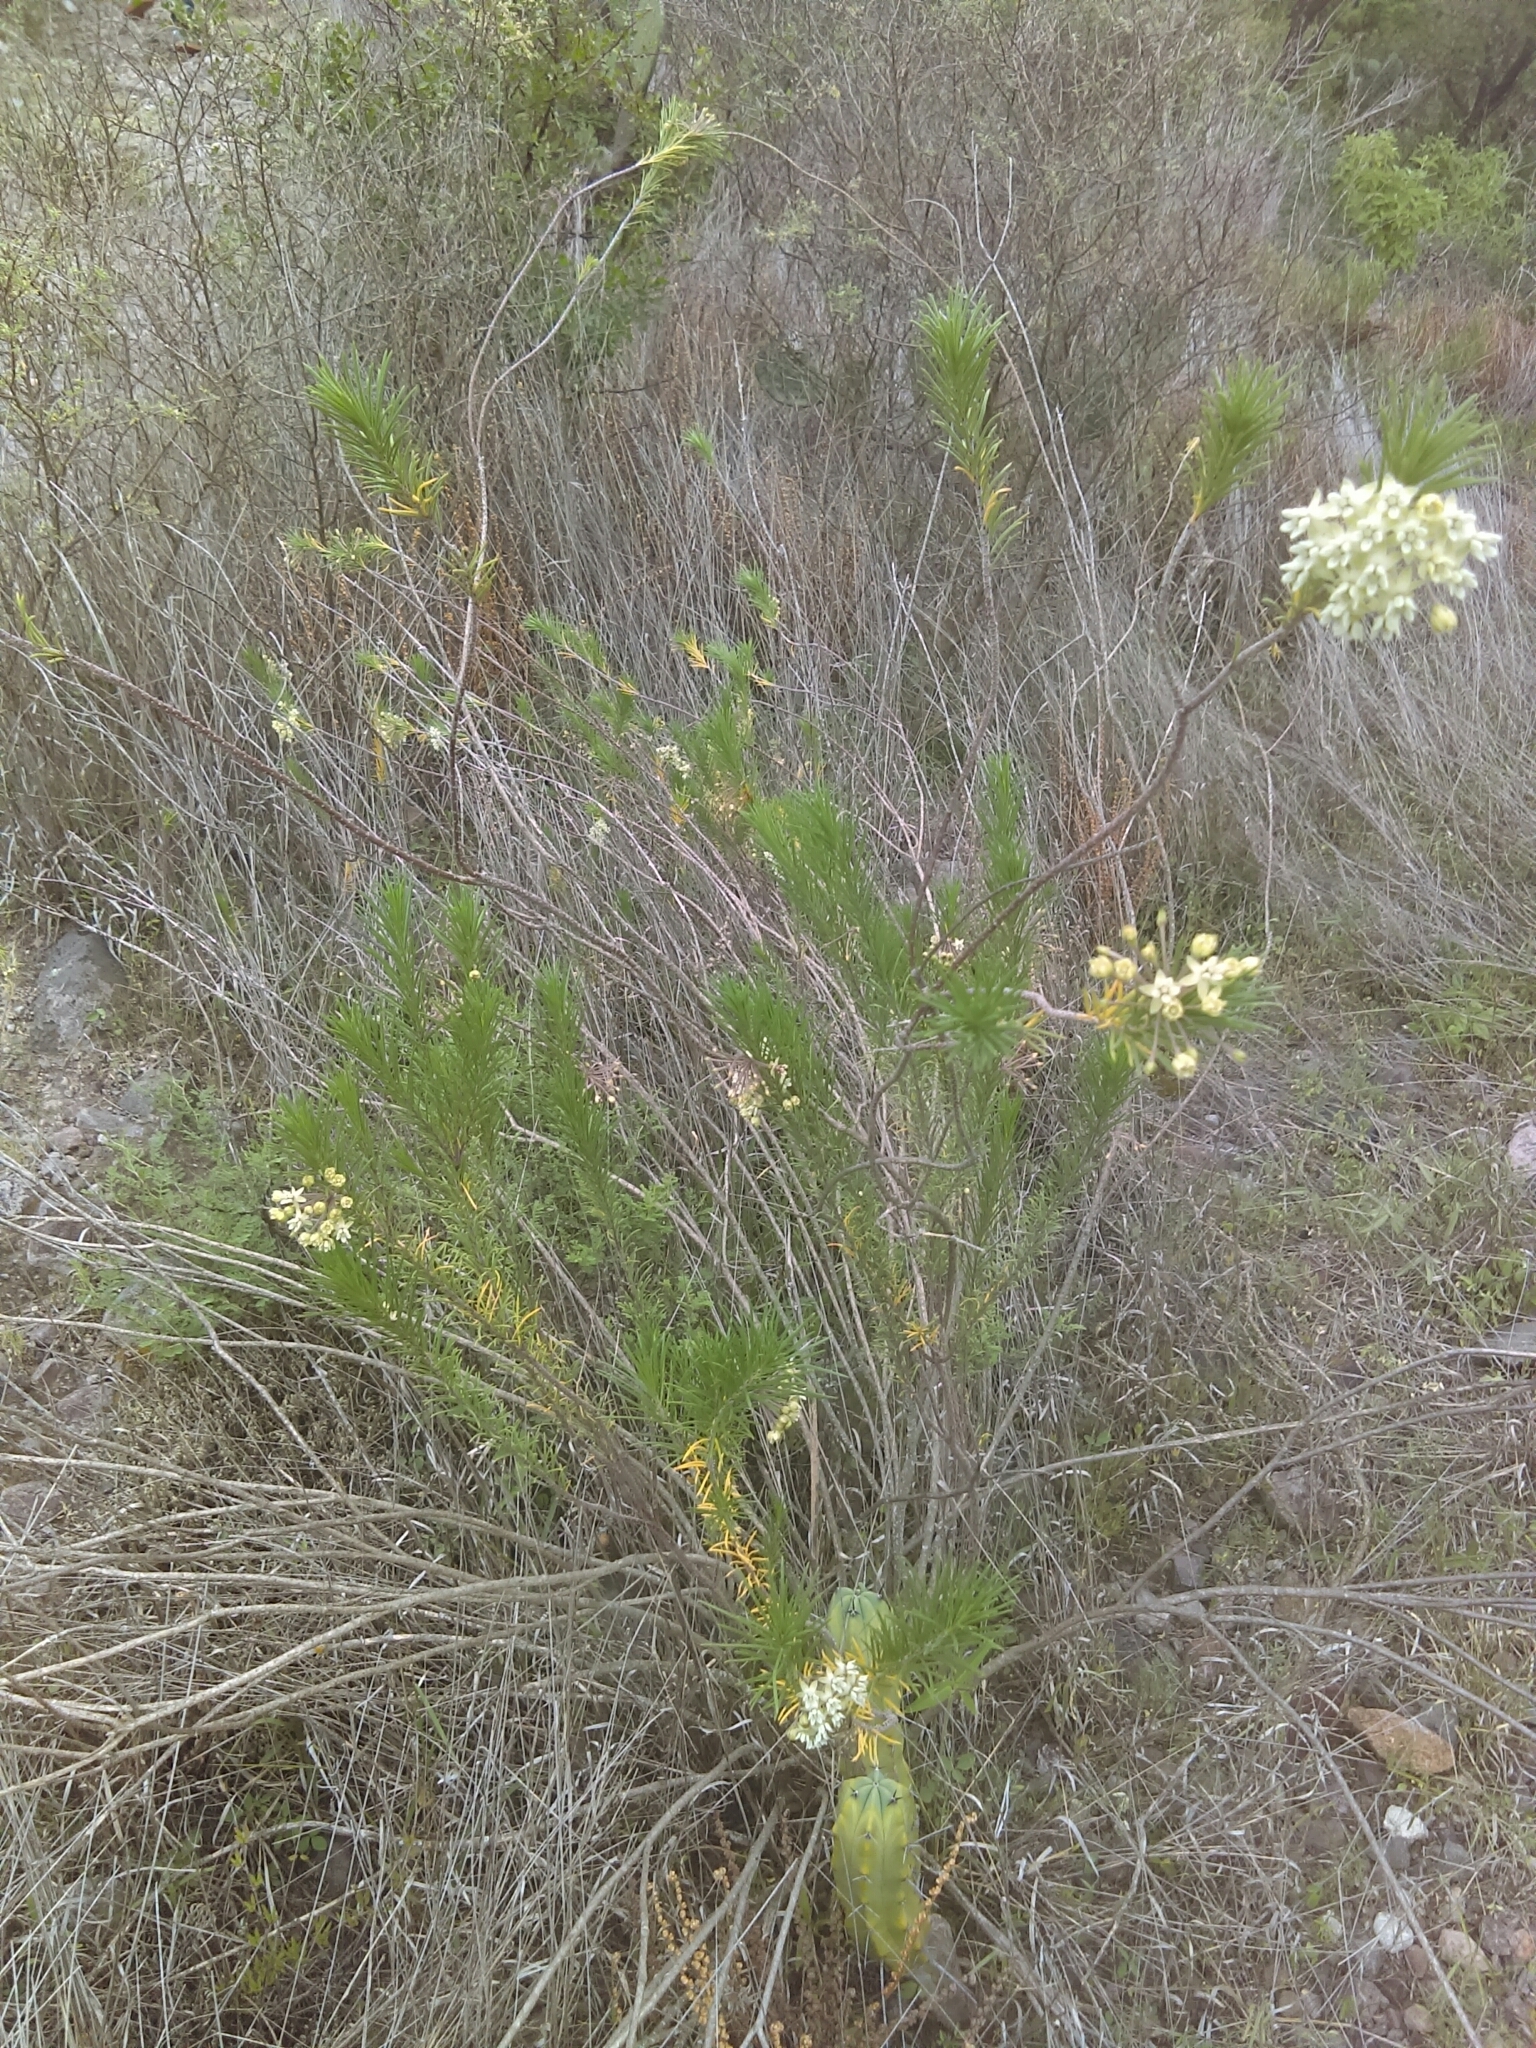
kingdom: Plantae
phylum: Tracheophyta
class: Magnoliopsida
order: Gentianales
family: Apocynaceae
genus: Asclepias
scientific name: Asclepias linaria
